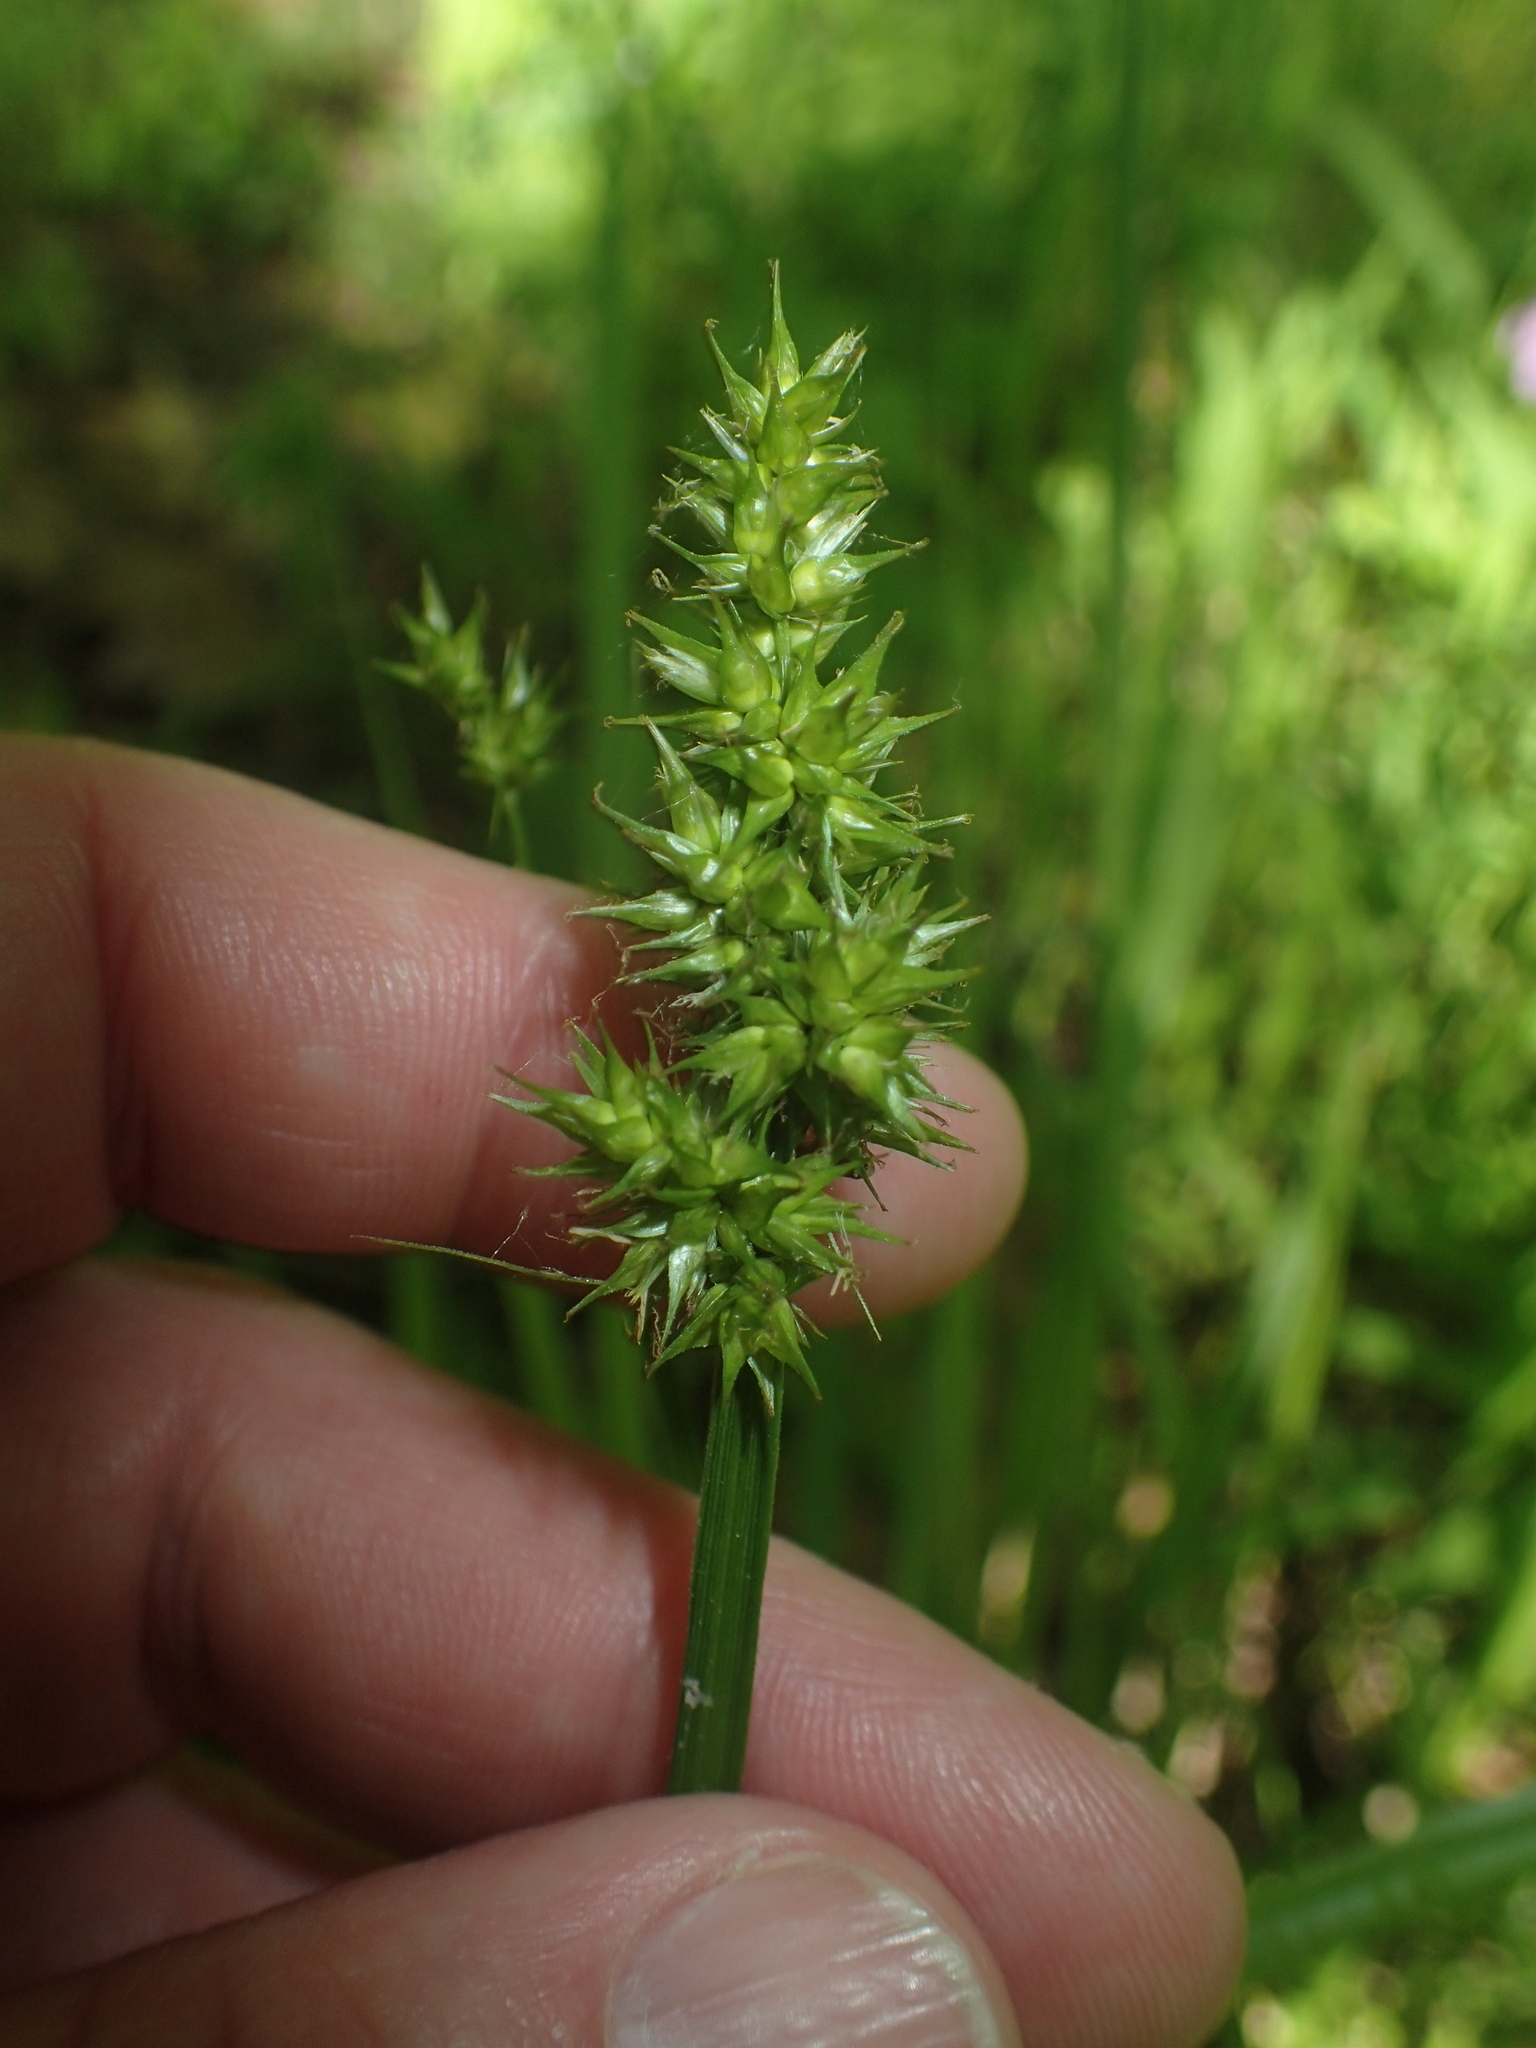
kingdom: Plantae
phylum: Tracheophyta
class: Liliopsida
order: Poales
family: Cyperaceae
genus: Carex
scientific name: Carex stipata
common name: Awl-fruited sedge
